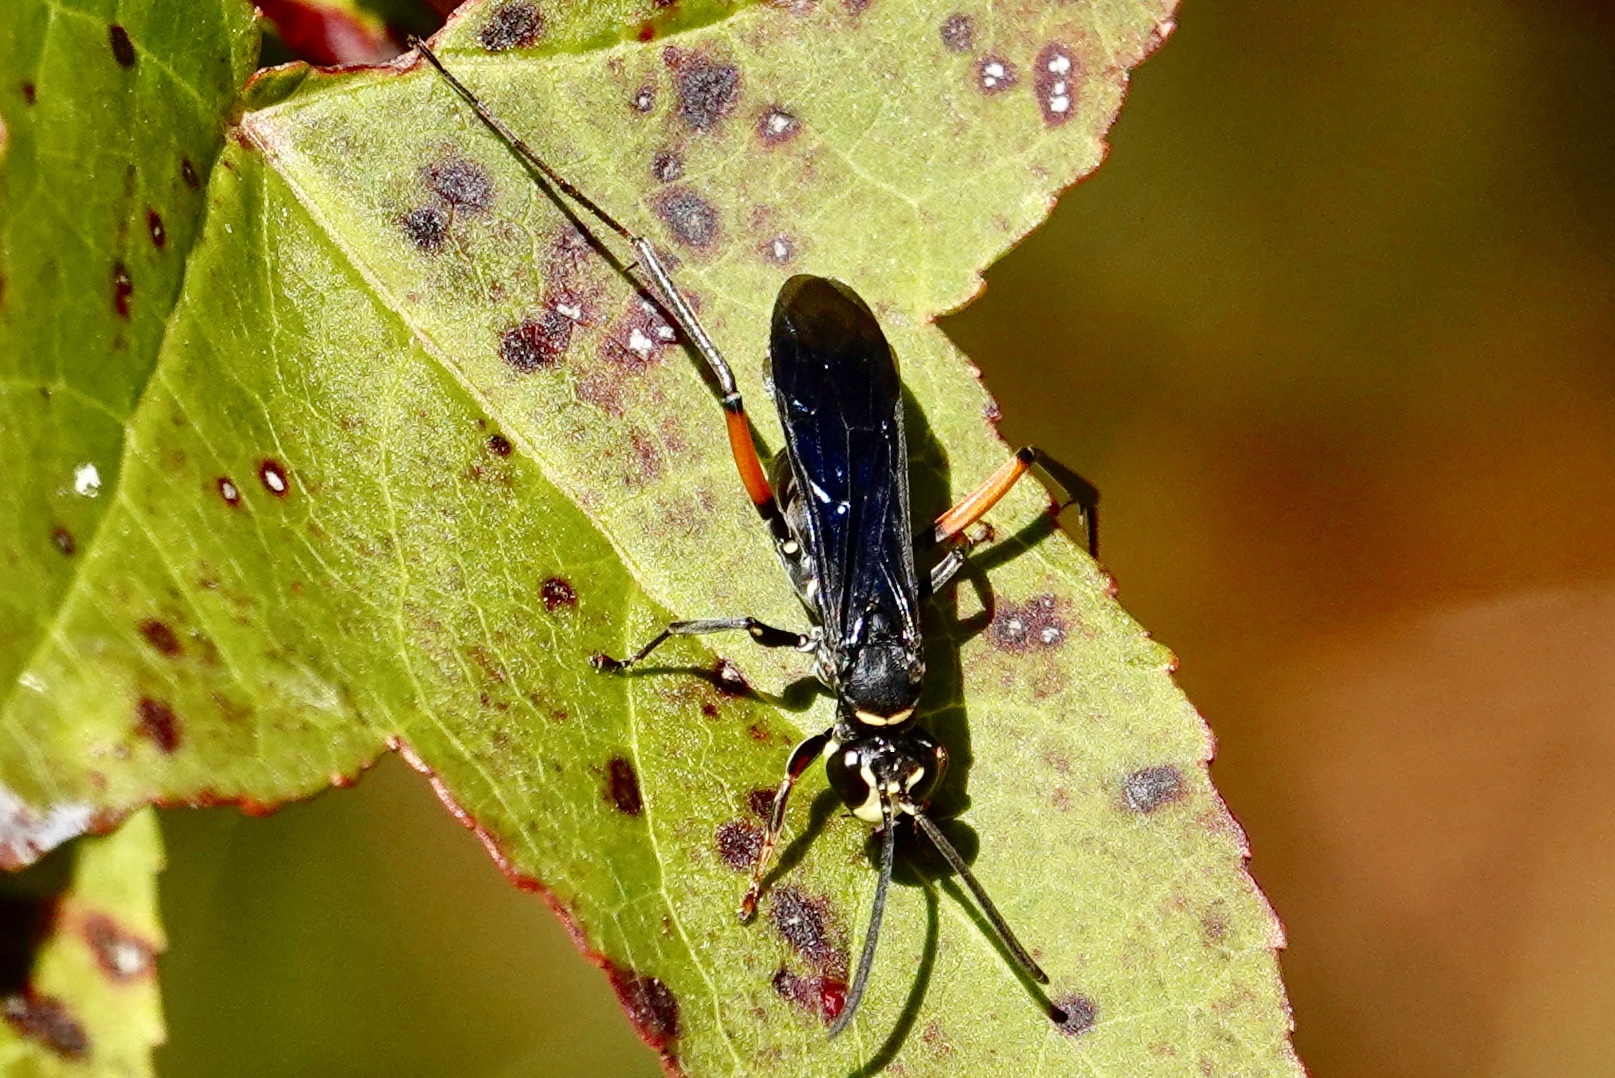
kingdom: Animalia
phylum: Arthropoda
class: Insecta
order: Hymenoptera
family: Pompilidae
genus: Ceropales
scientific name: Ceropales bipunctata
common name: Two-speckled cuckoo spider wasp
